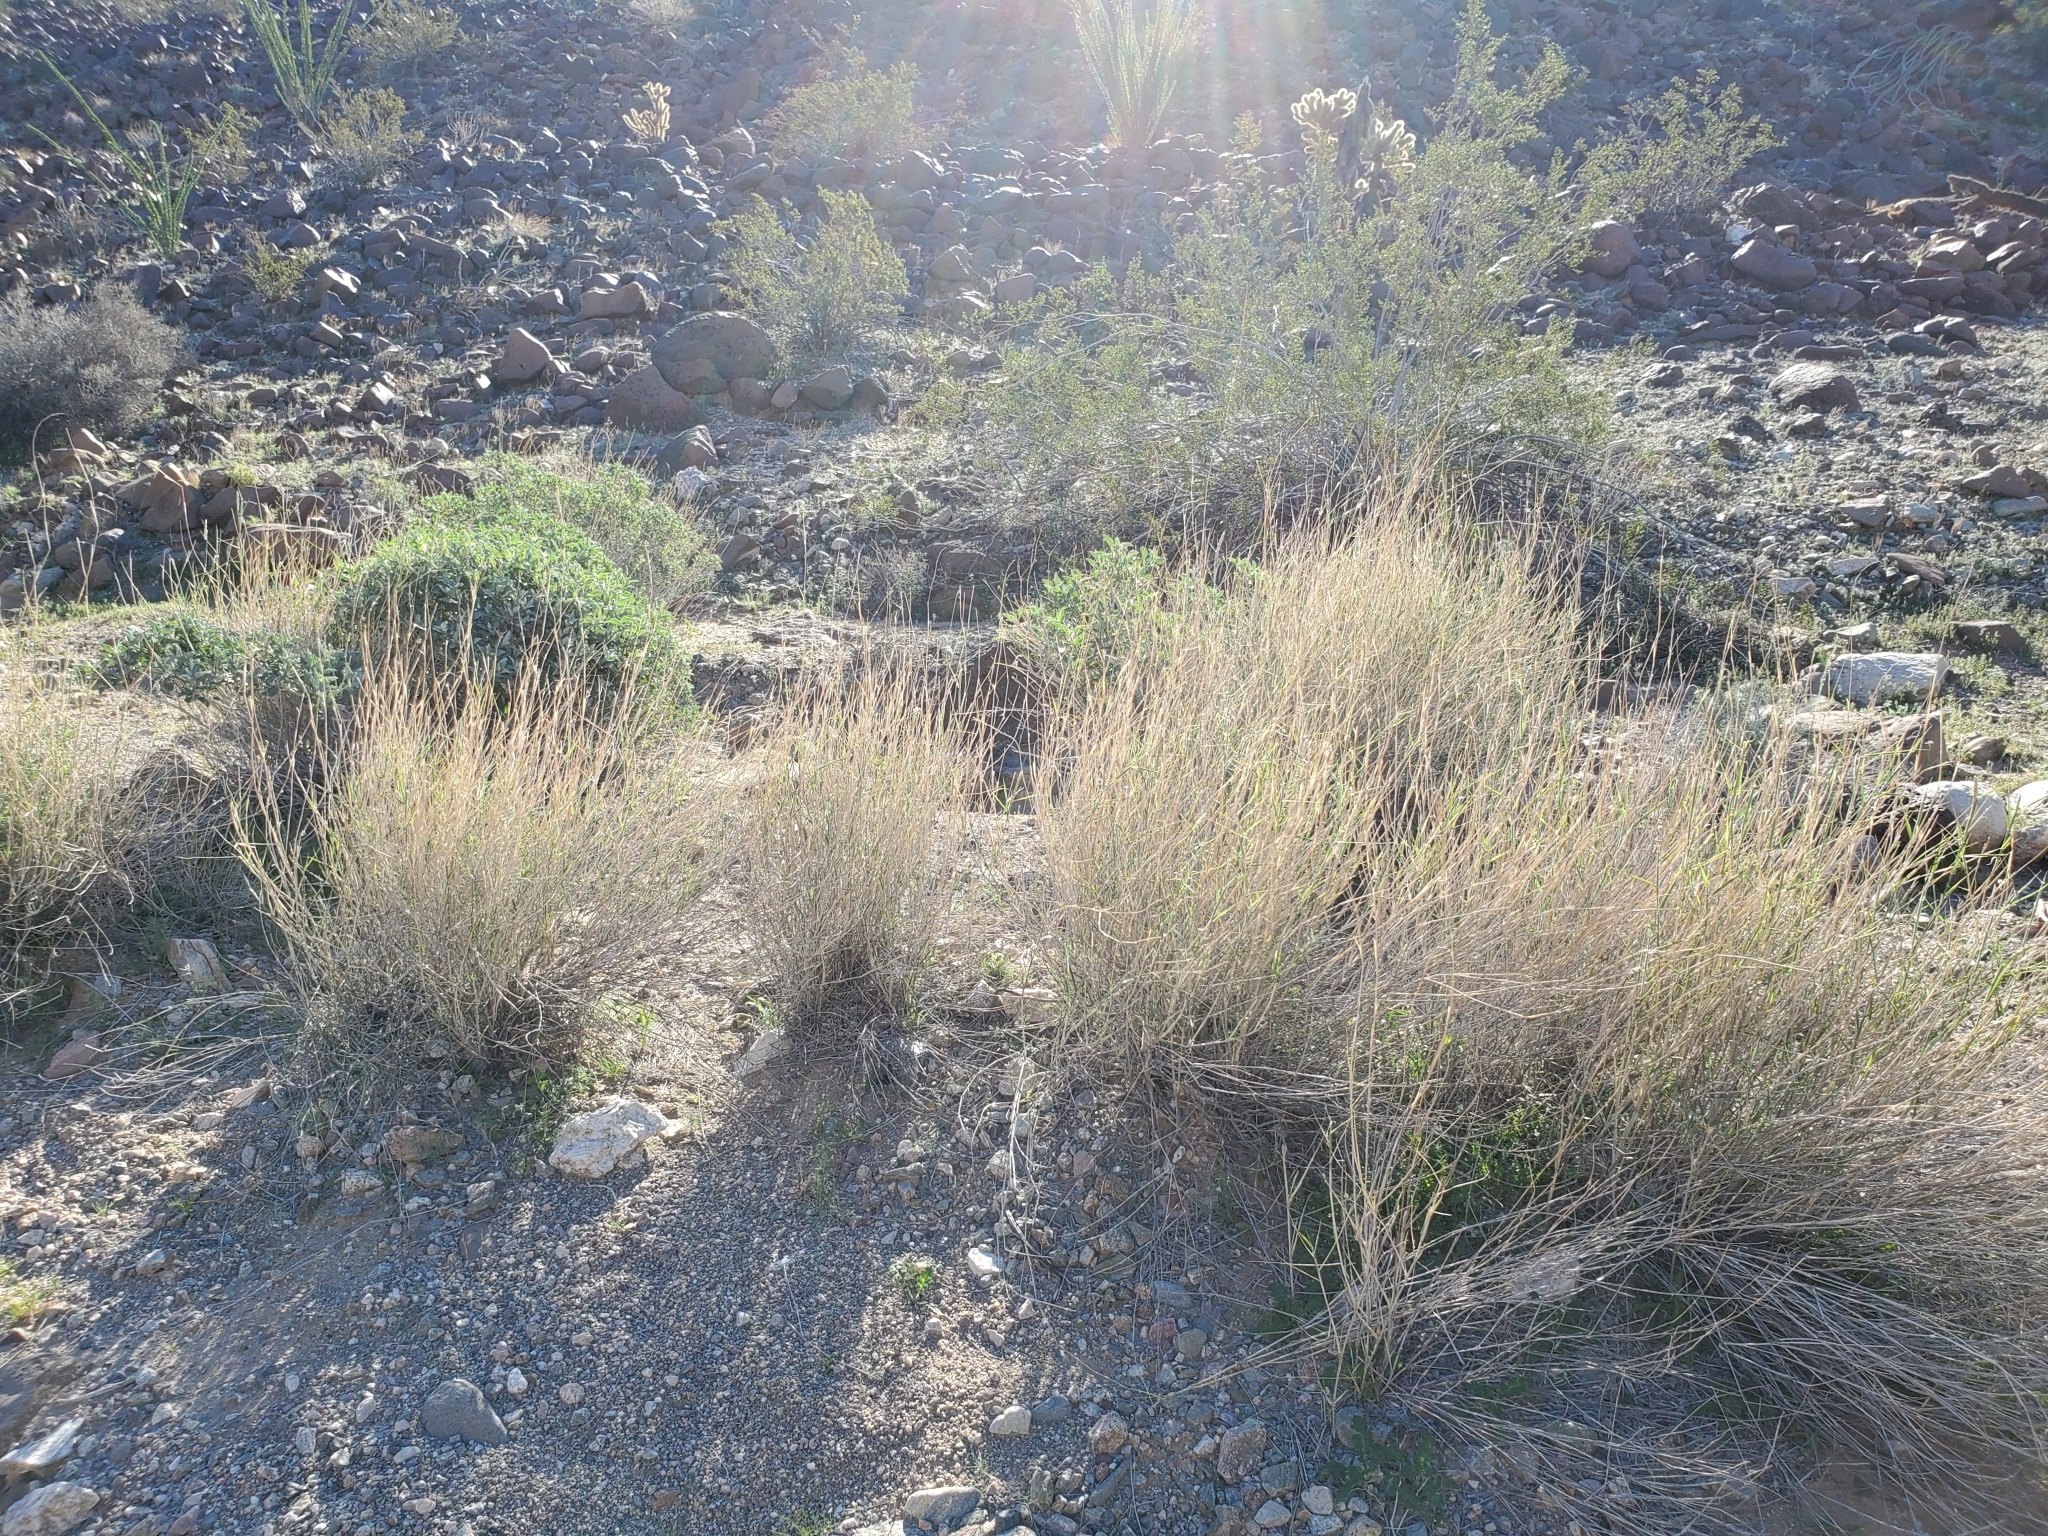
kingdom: Plantae
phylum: Tracheophyta
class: Liliopsida
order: Poales
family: Poaceae
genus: Hilaria
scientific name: Hilaria rigida
